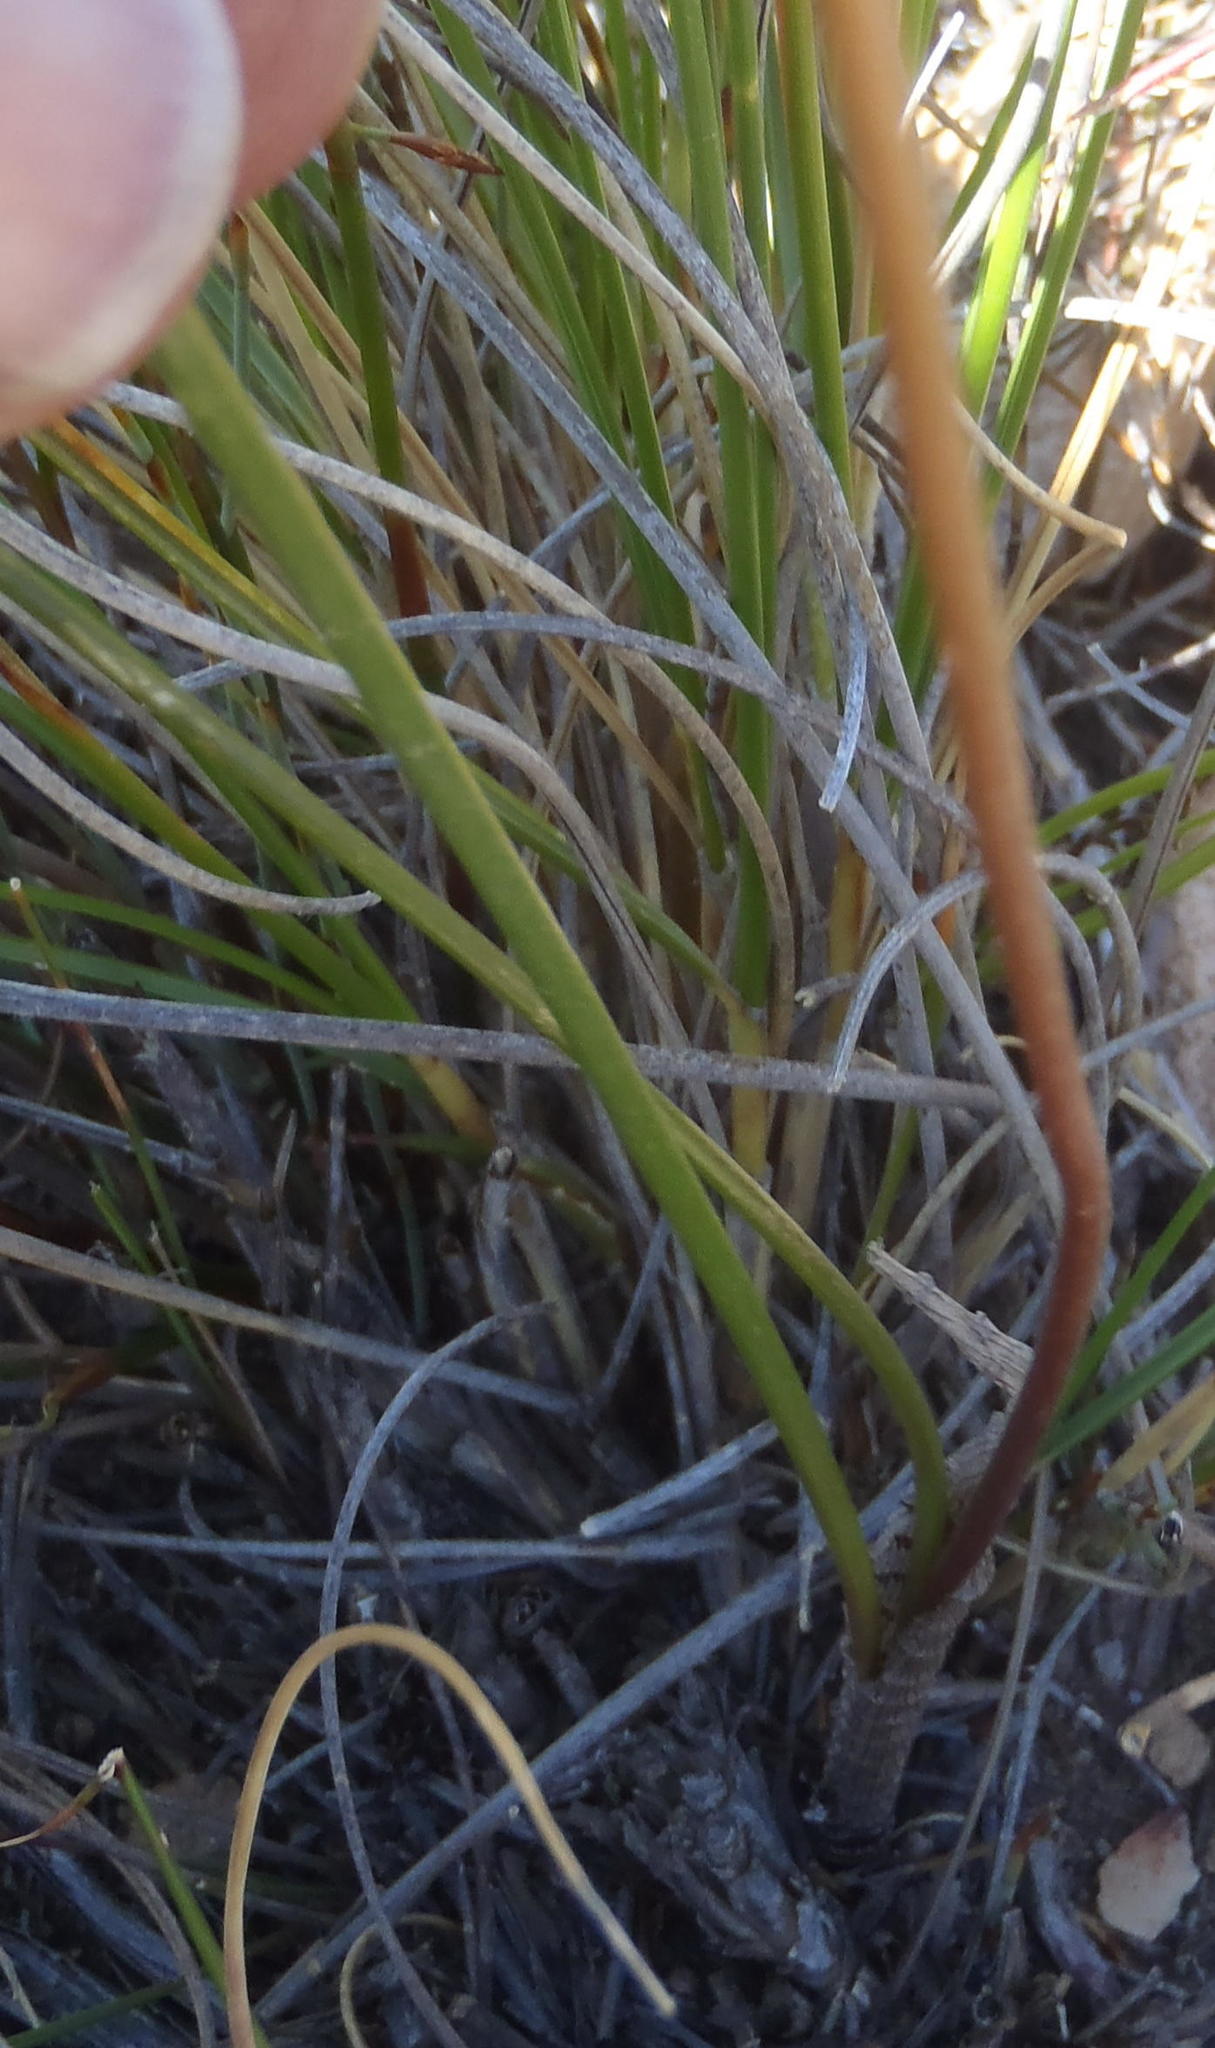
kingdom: Plantae
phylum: Tracheophyta
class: Liliopsida
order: Asparagales
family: Asparagaceae
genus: Drimia
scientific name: Drimia exuviata
